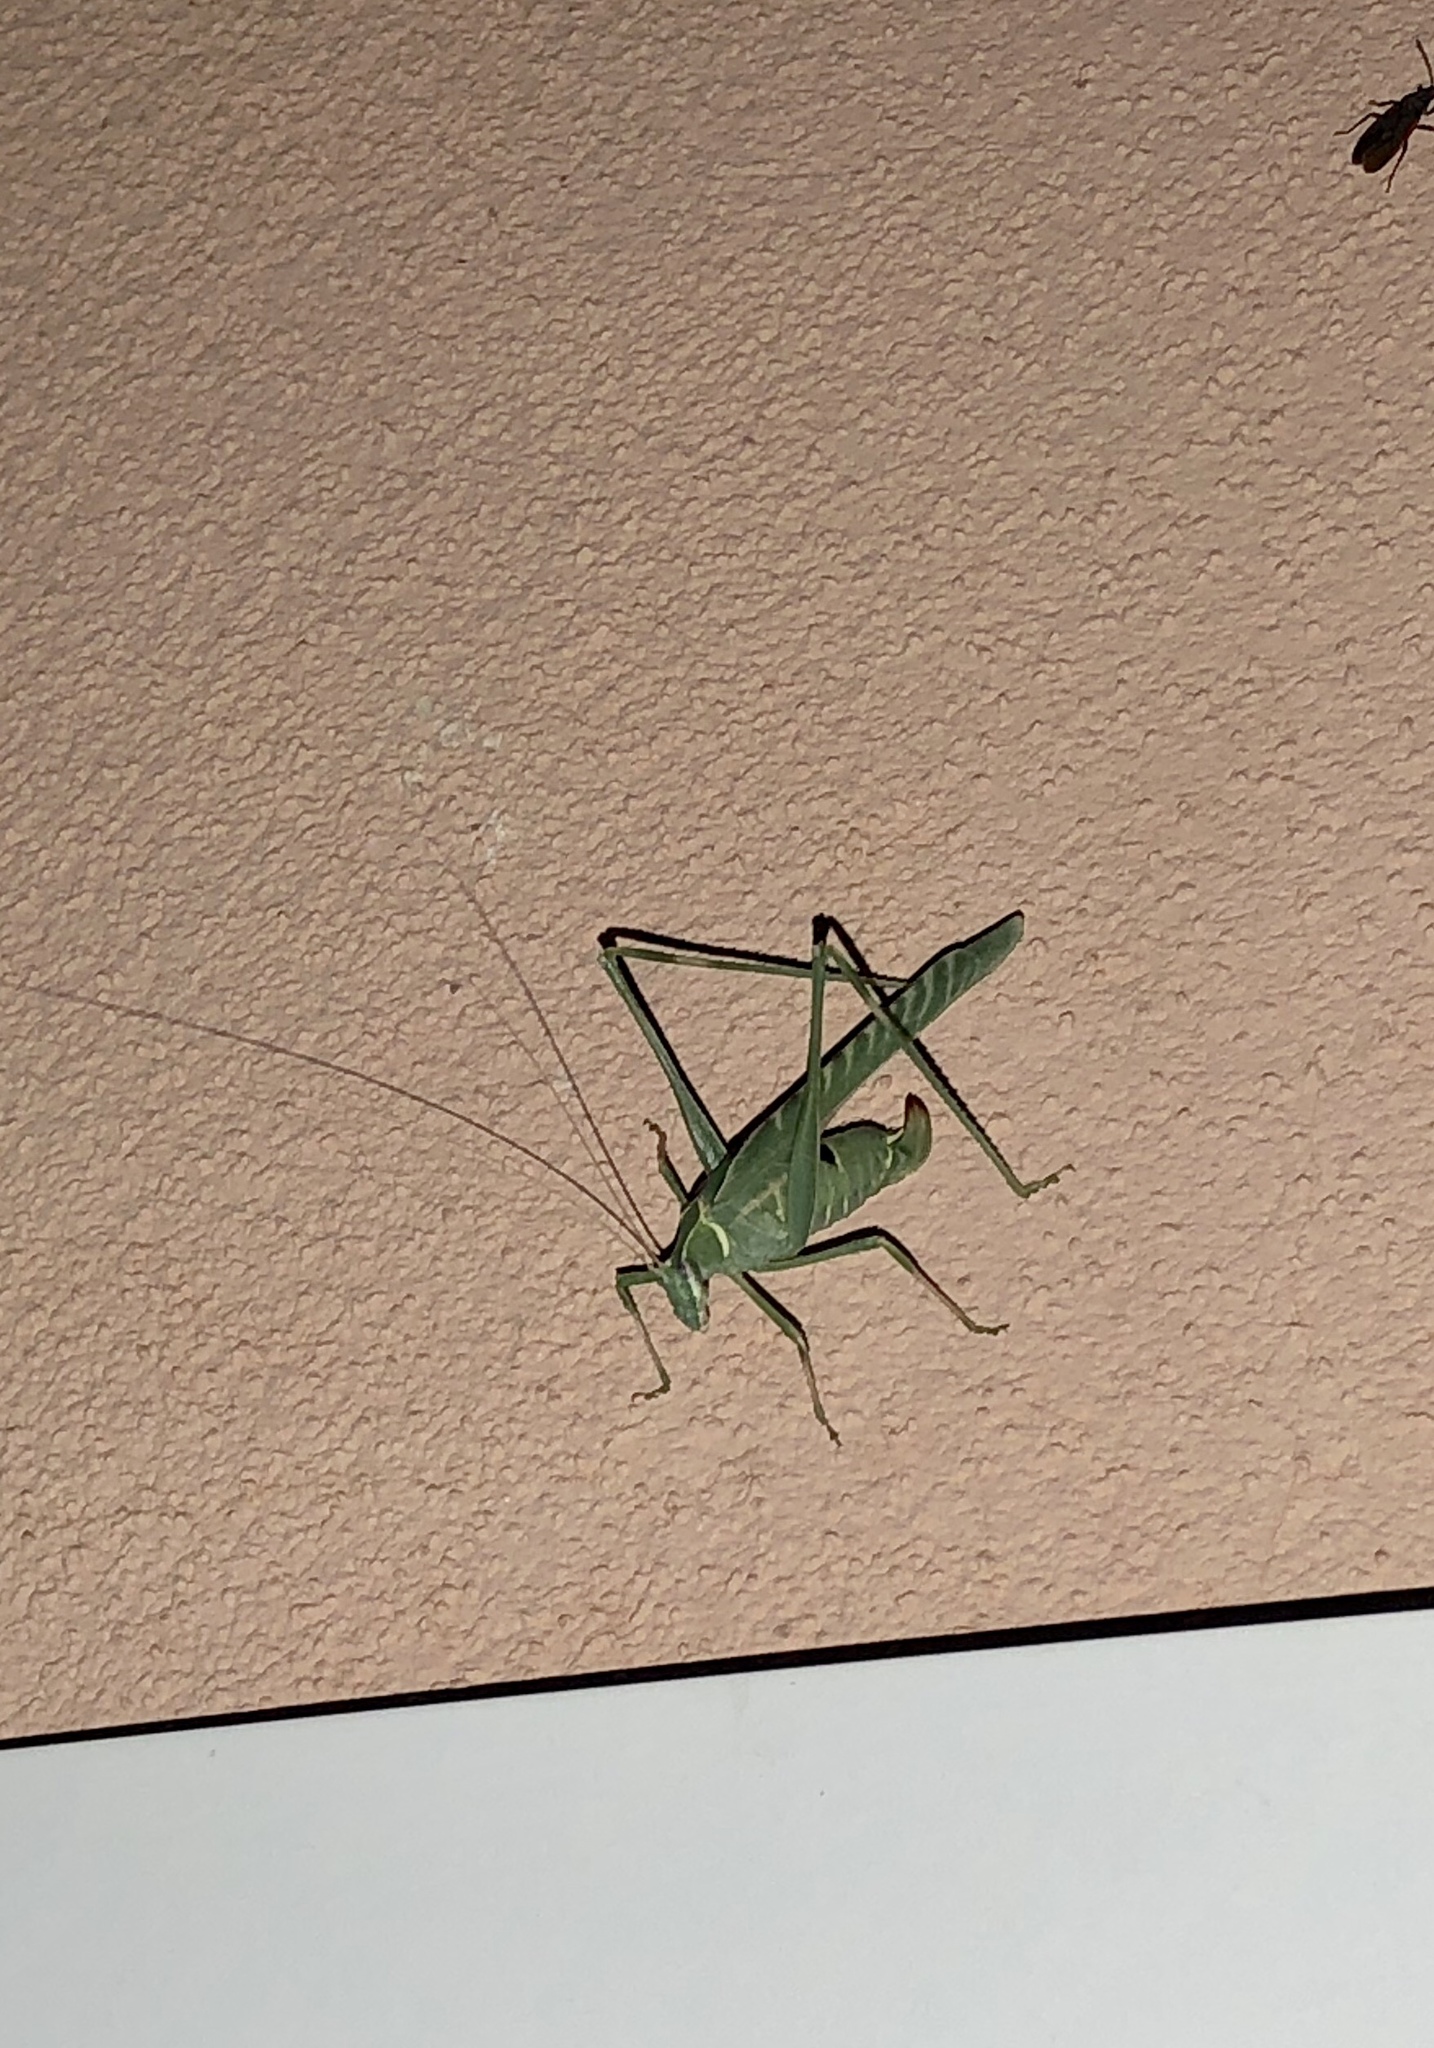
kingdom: Animalia
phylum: Arthropoda
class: Insecta
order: Orthoptera
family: Tettigoniidae
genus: Insara
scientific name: Insara elegans
